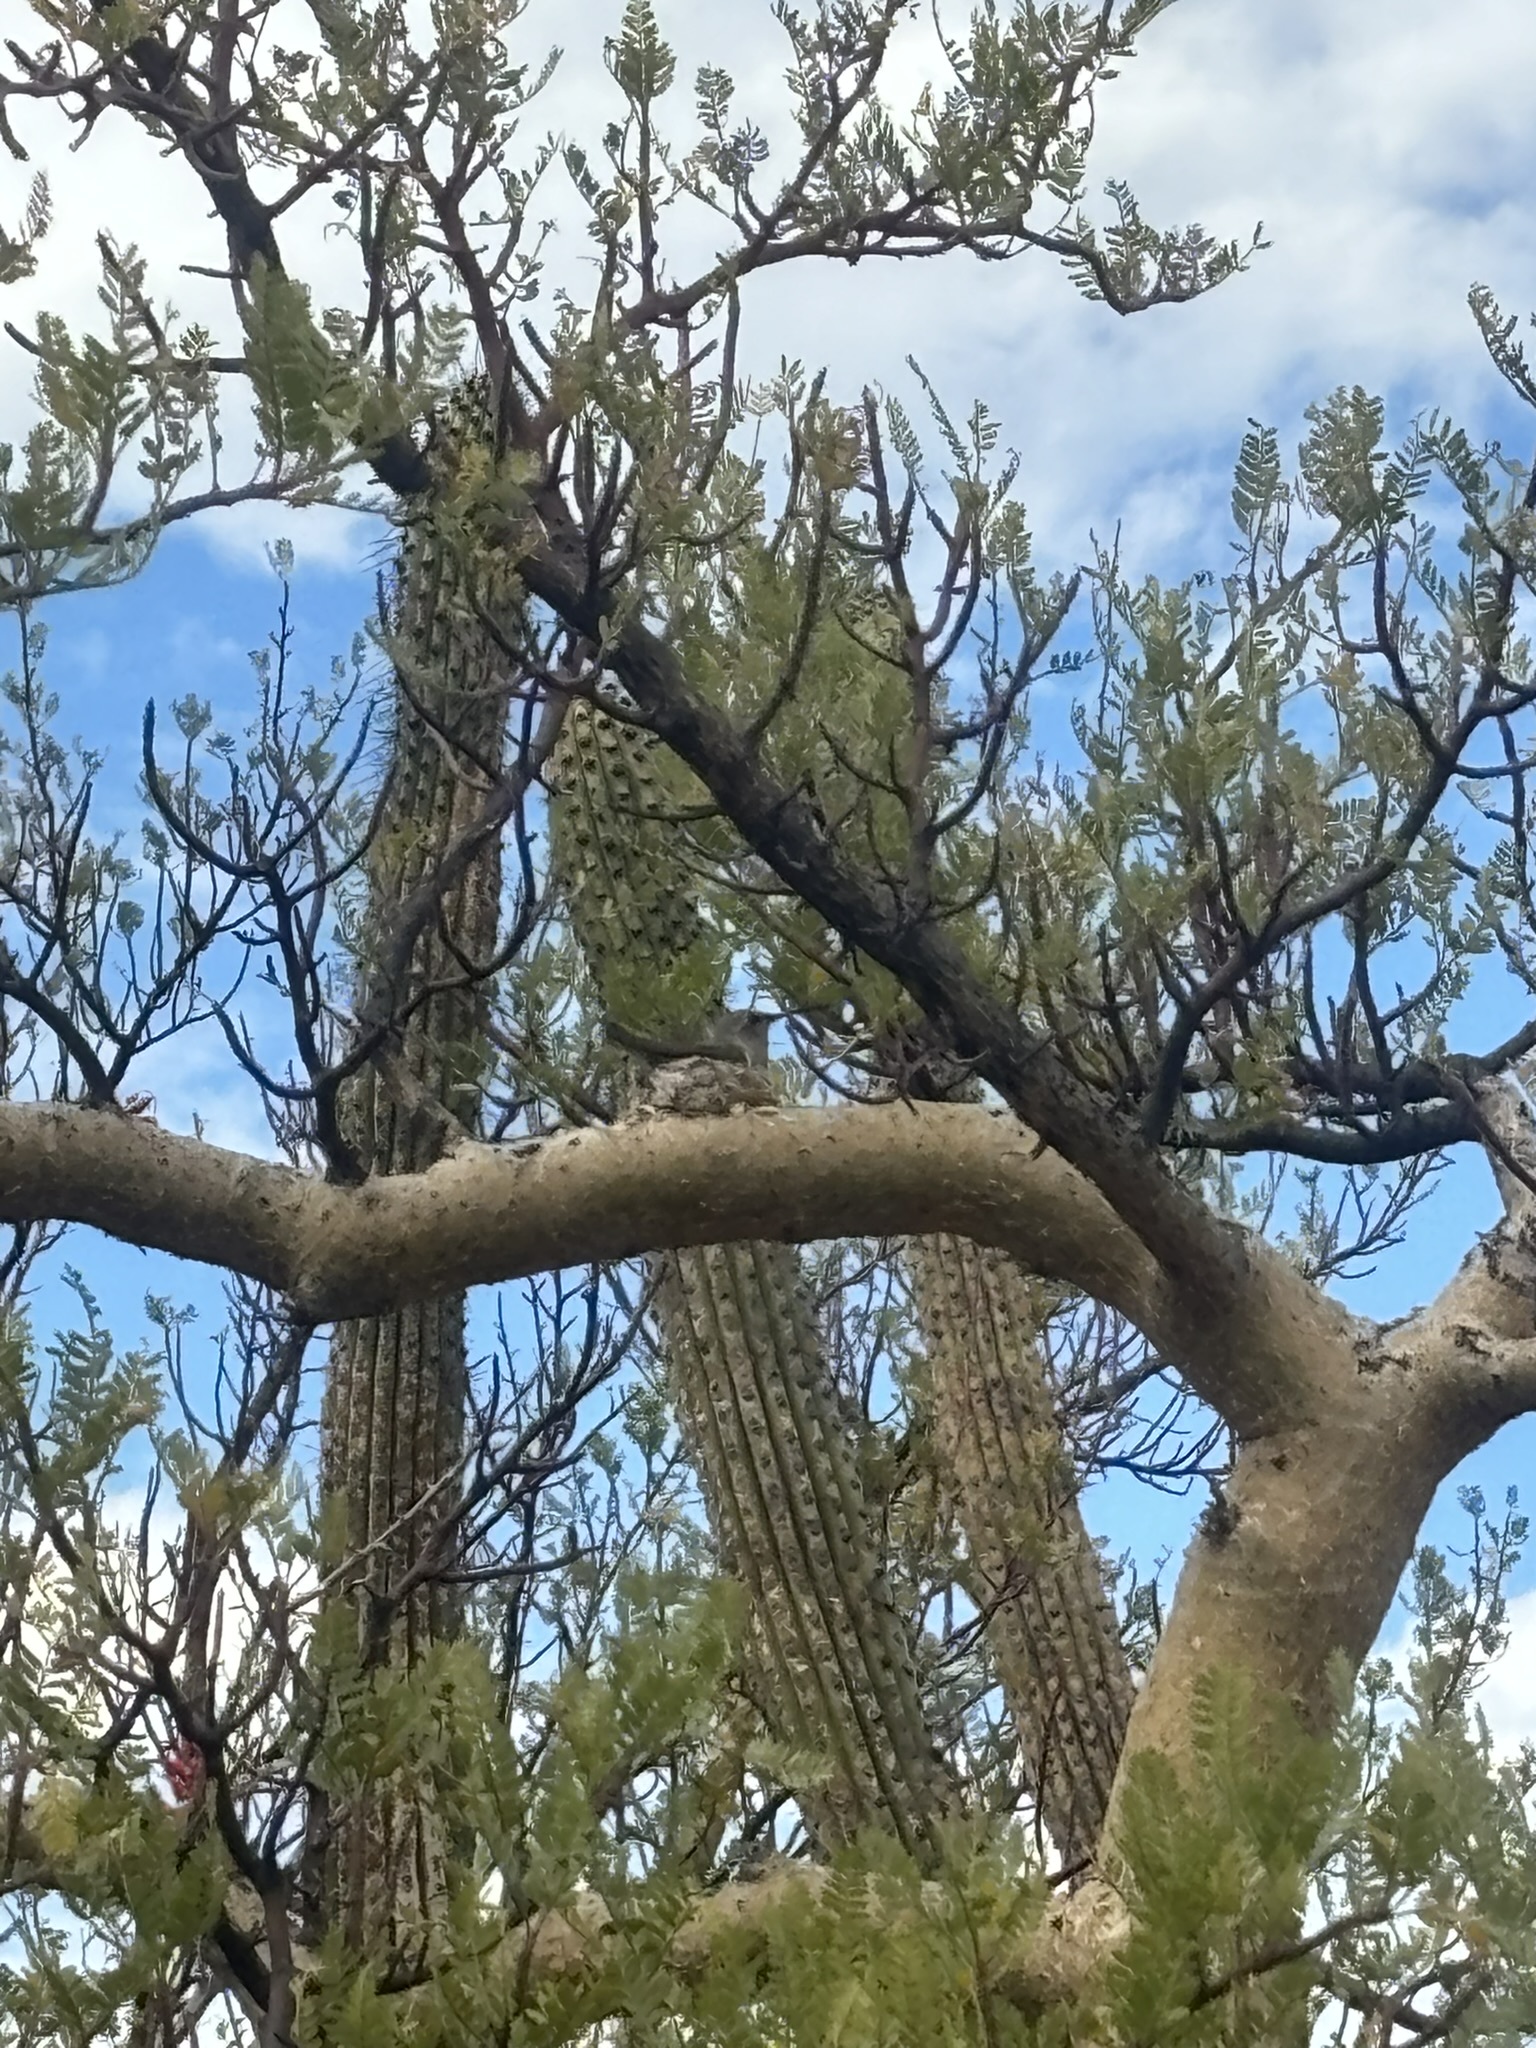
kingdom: Animalia
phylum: Chordata
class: Aves
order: Apodiformes
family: Trochilidae
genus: Calypte
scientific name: Calypte costae
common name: Costa's hummingbird
